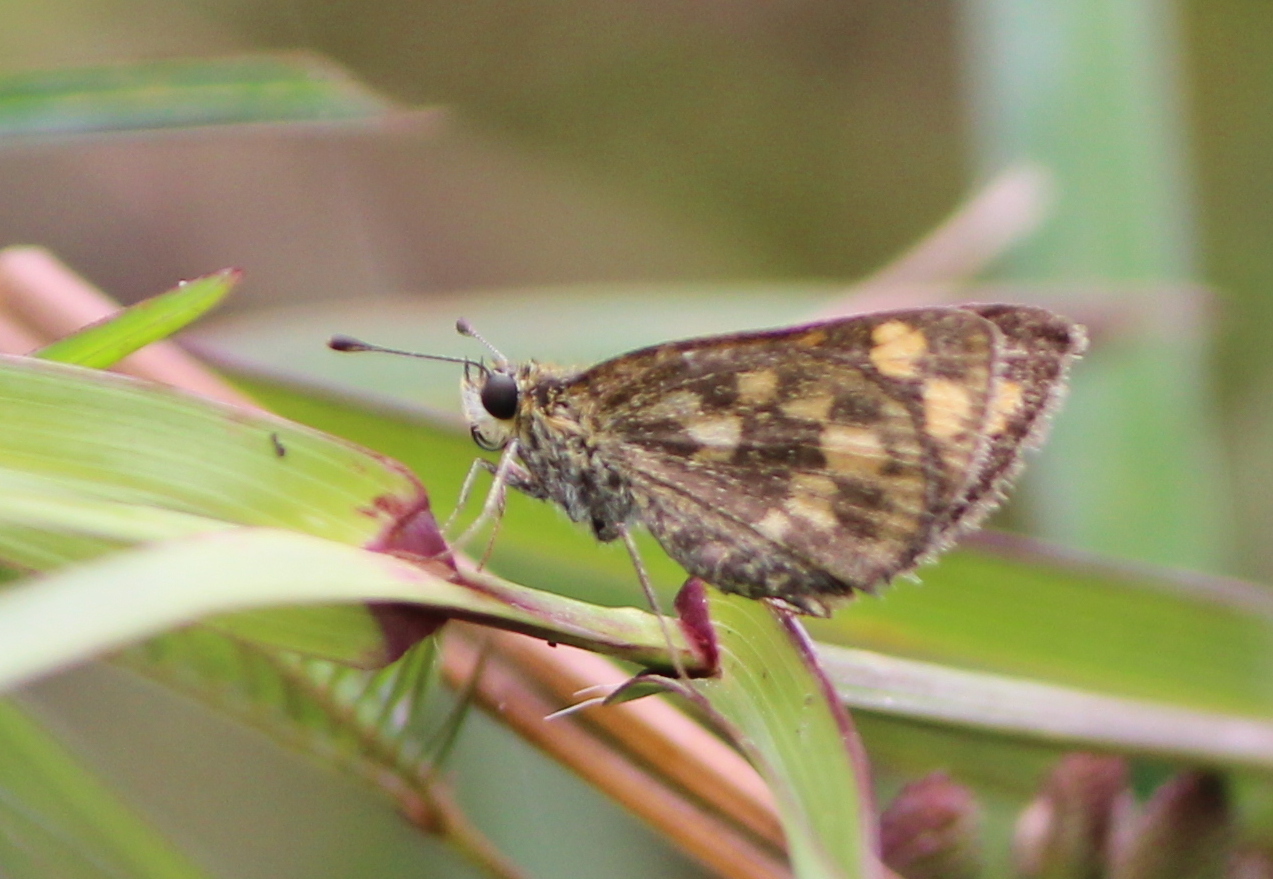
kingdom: Animalia
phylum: Arthropoda
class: Insecta
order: Lepidoptera
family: Hesperiidae
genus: Taractrocera
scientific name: Taractrocera ceramas
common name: Tamil grass dart
